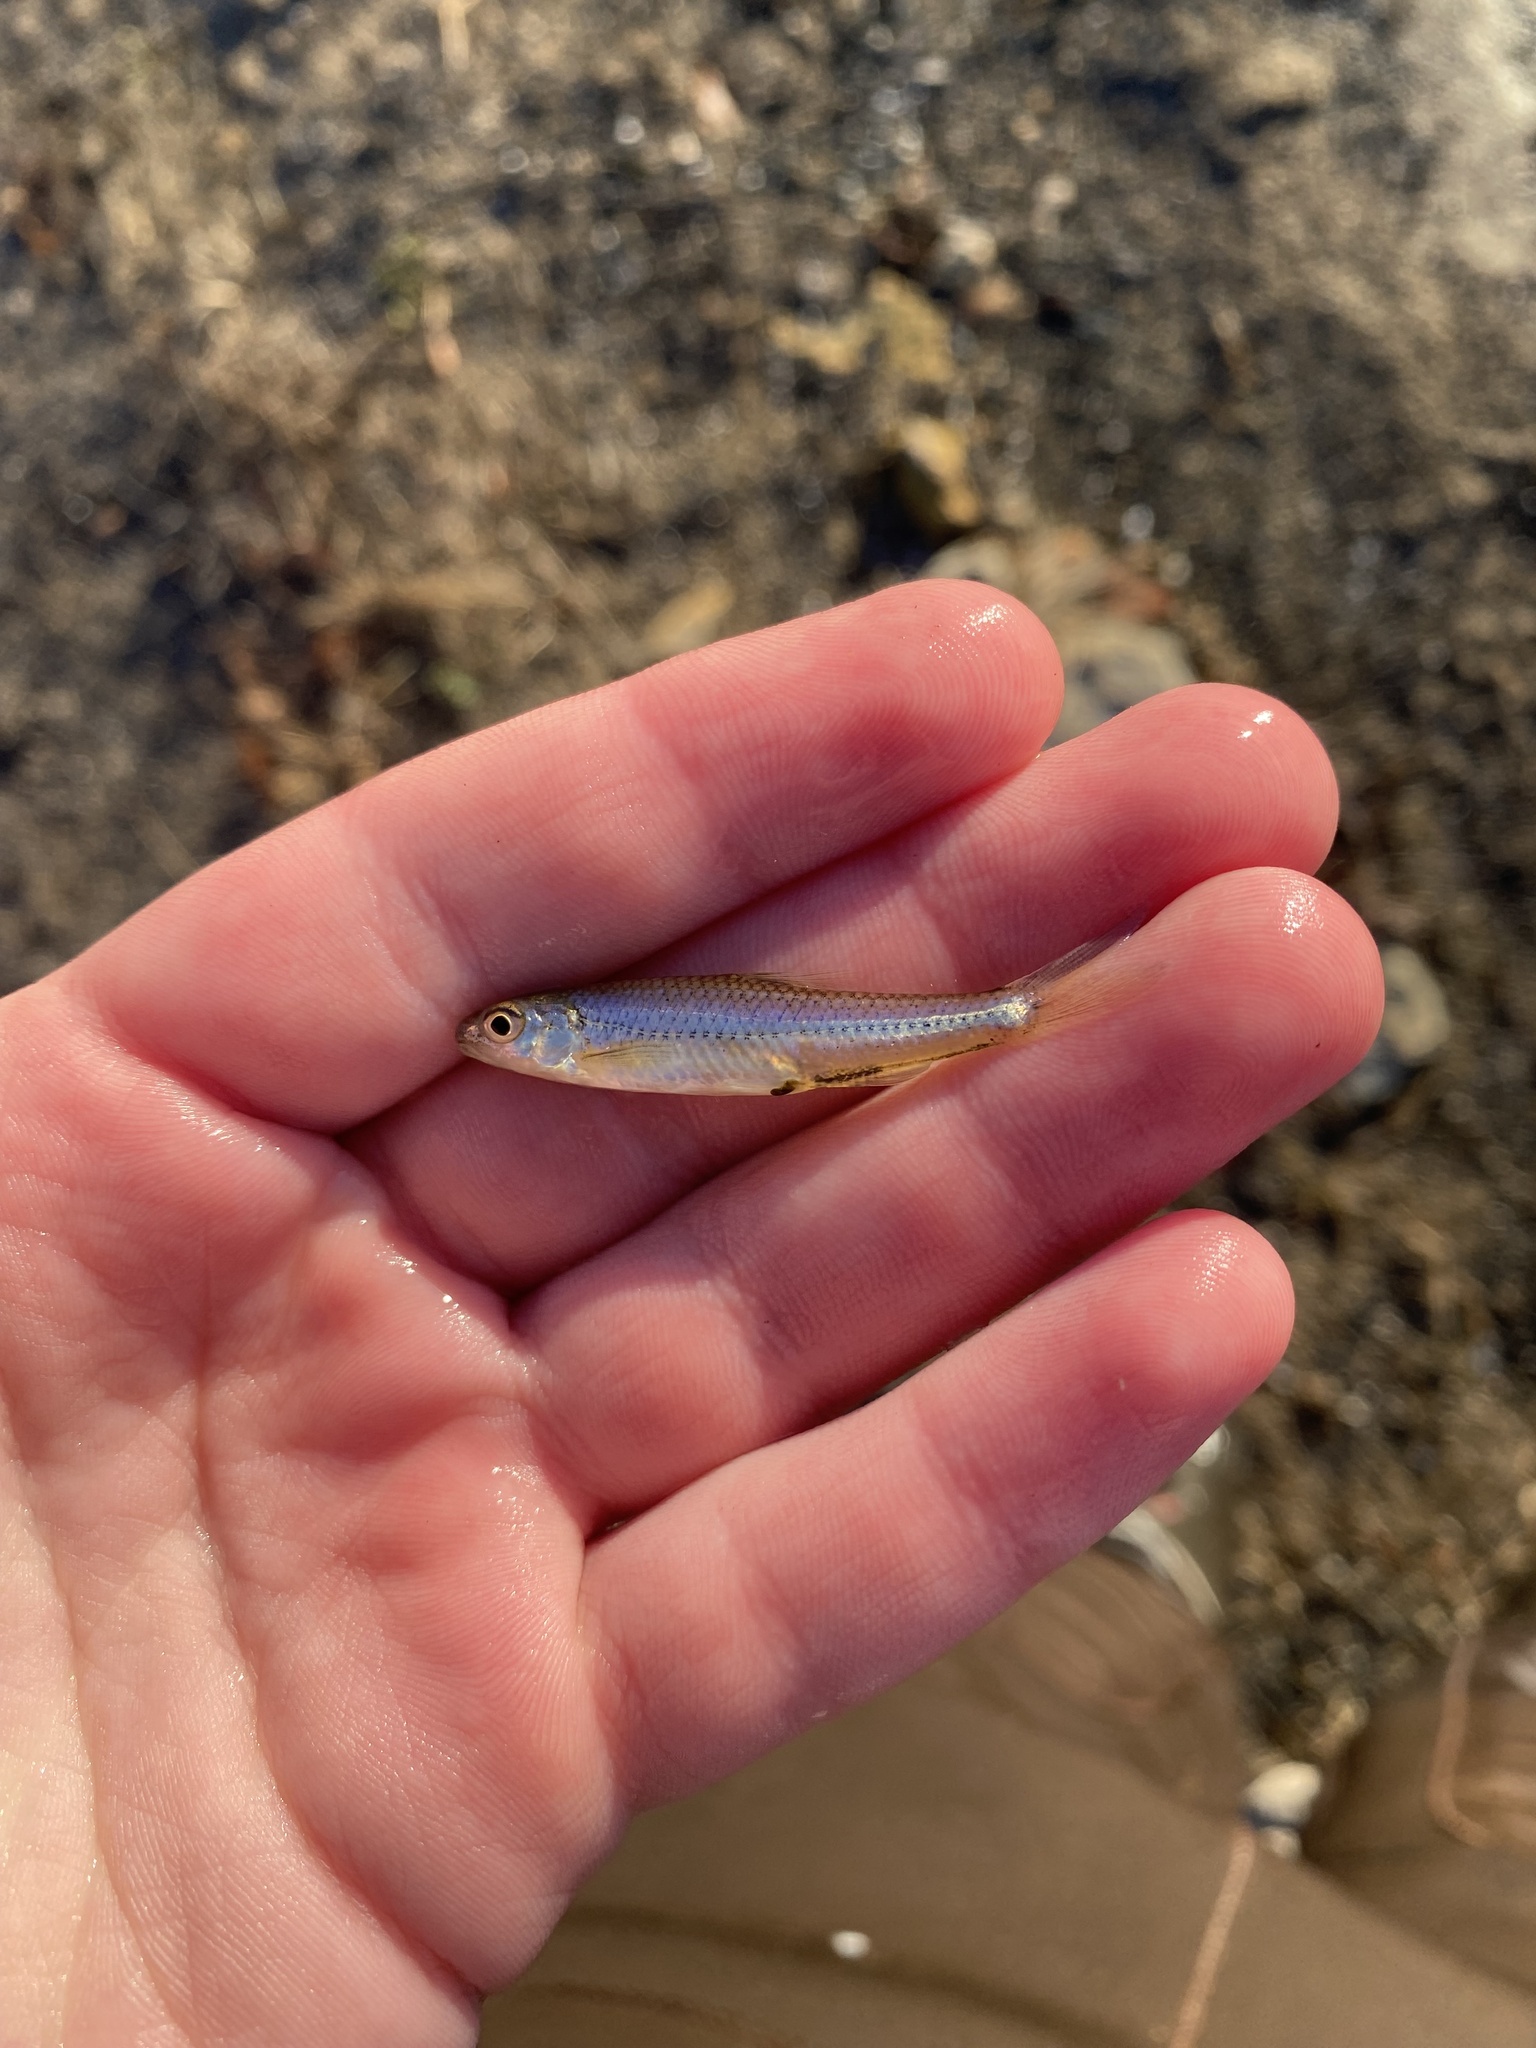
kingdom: Animalia
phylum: Chordata
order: Cypriniformes
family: Cyprinidae
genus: Notropis
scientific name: Notropis
